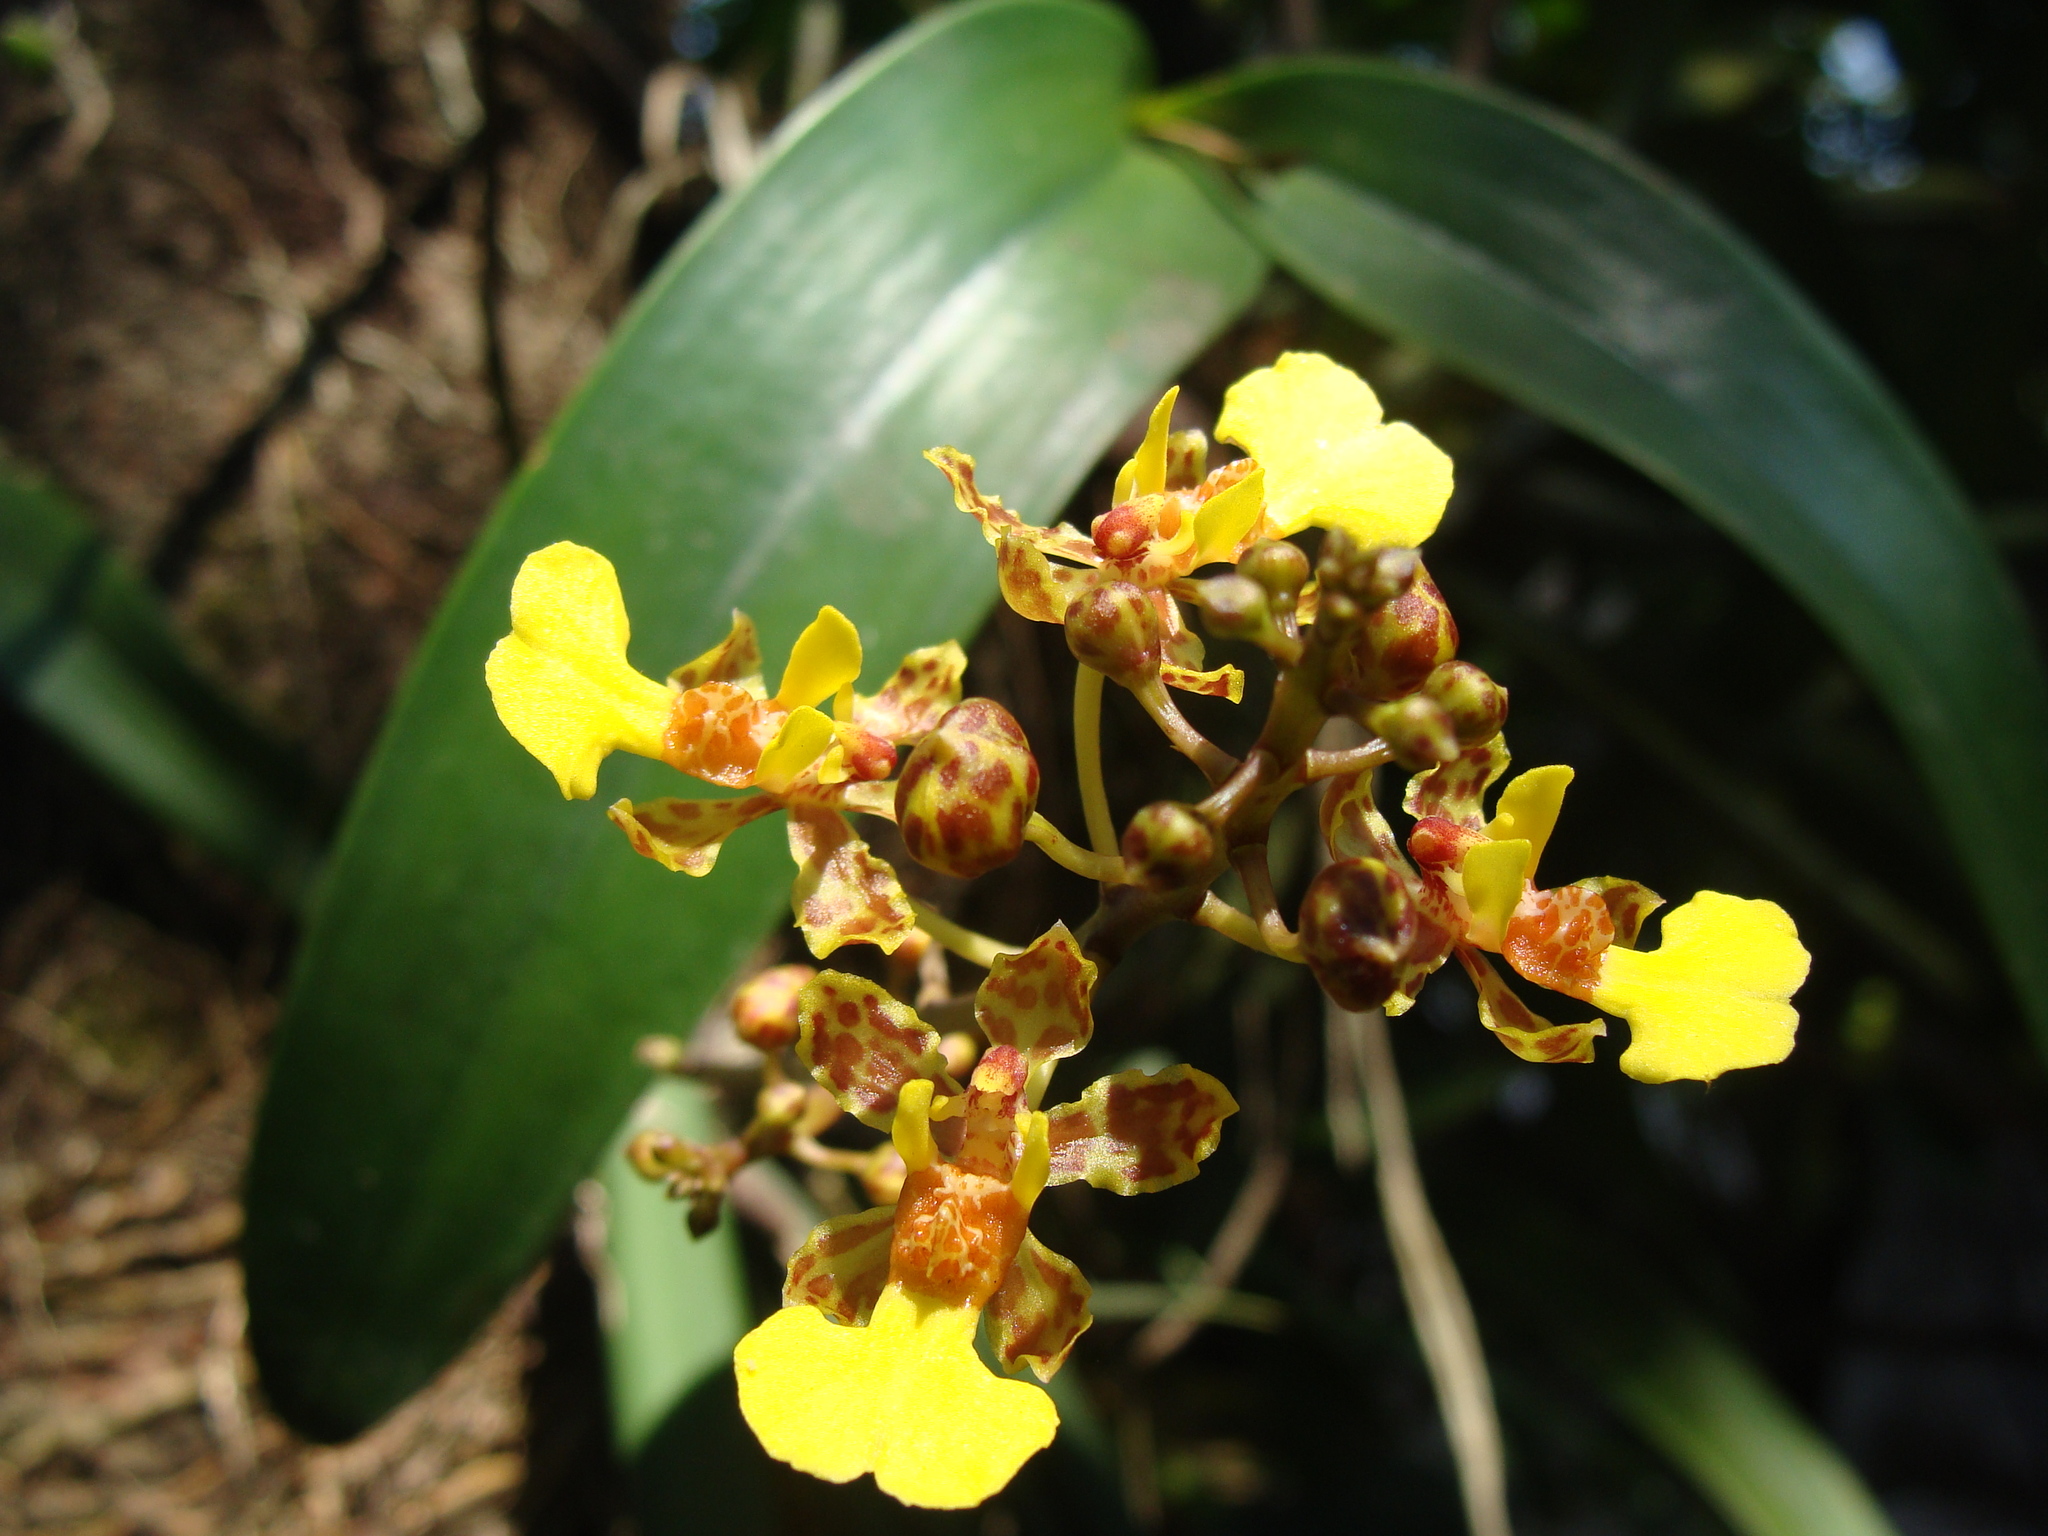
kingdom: Plantae
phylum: Tracheophyta
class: Liliopsida
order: Asparagales
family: Orchidaceae
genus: Trichocentrum
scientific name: Trichocentrum ascendens
